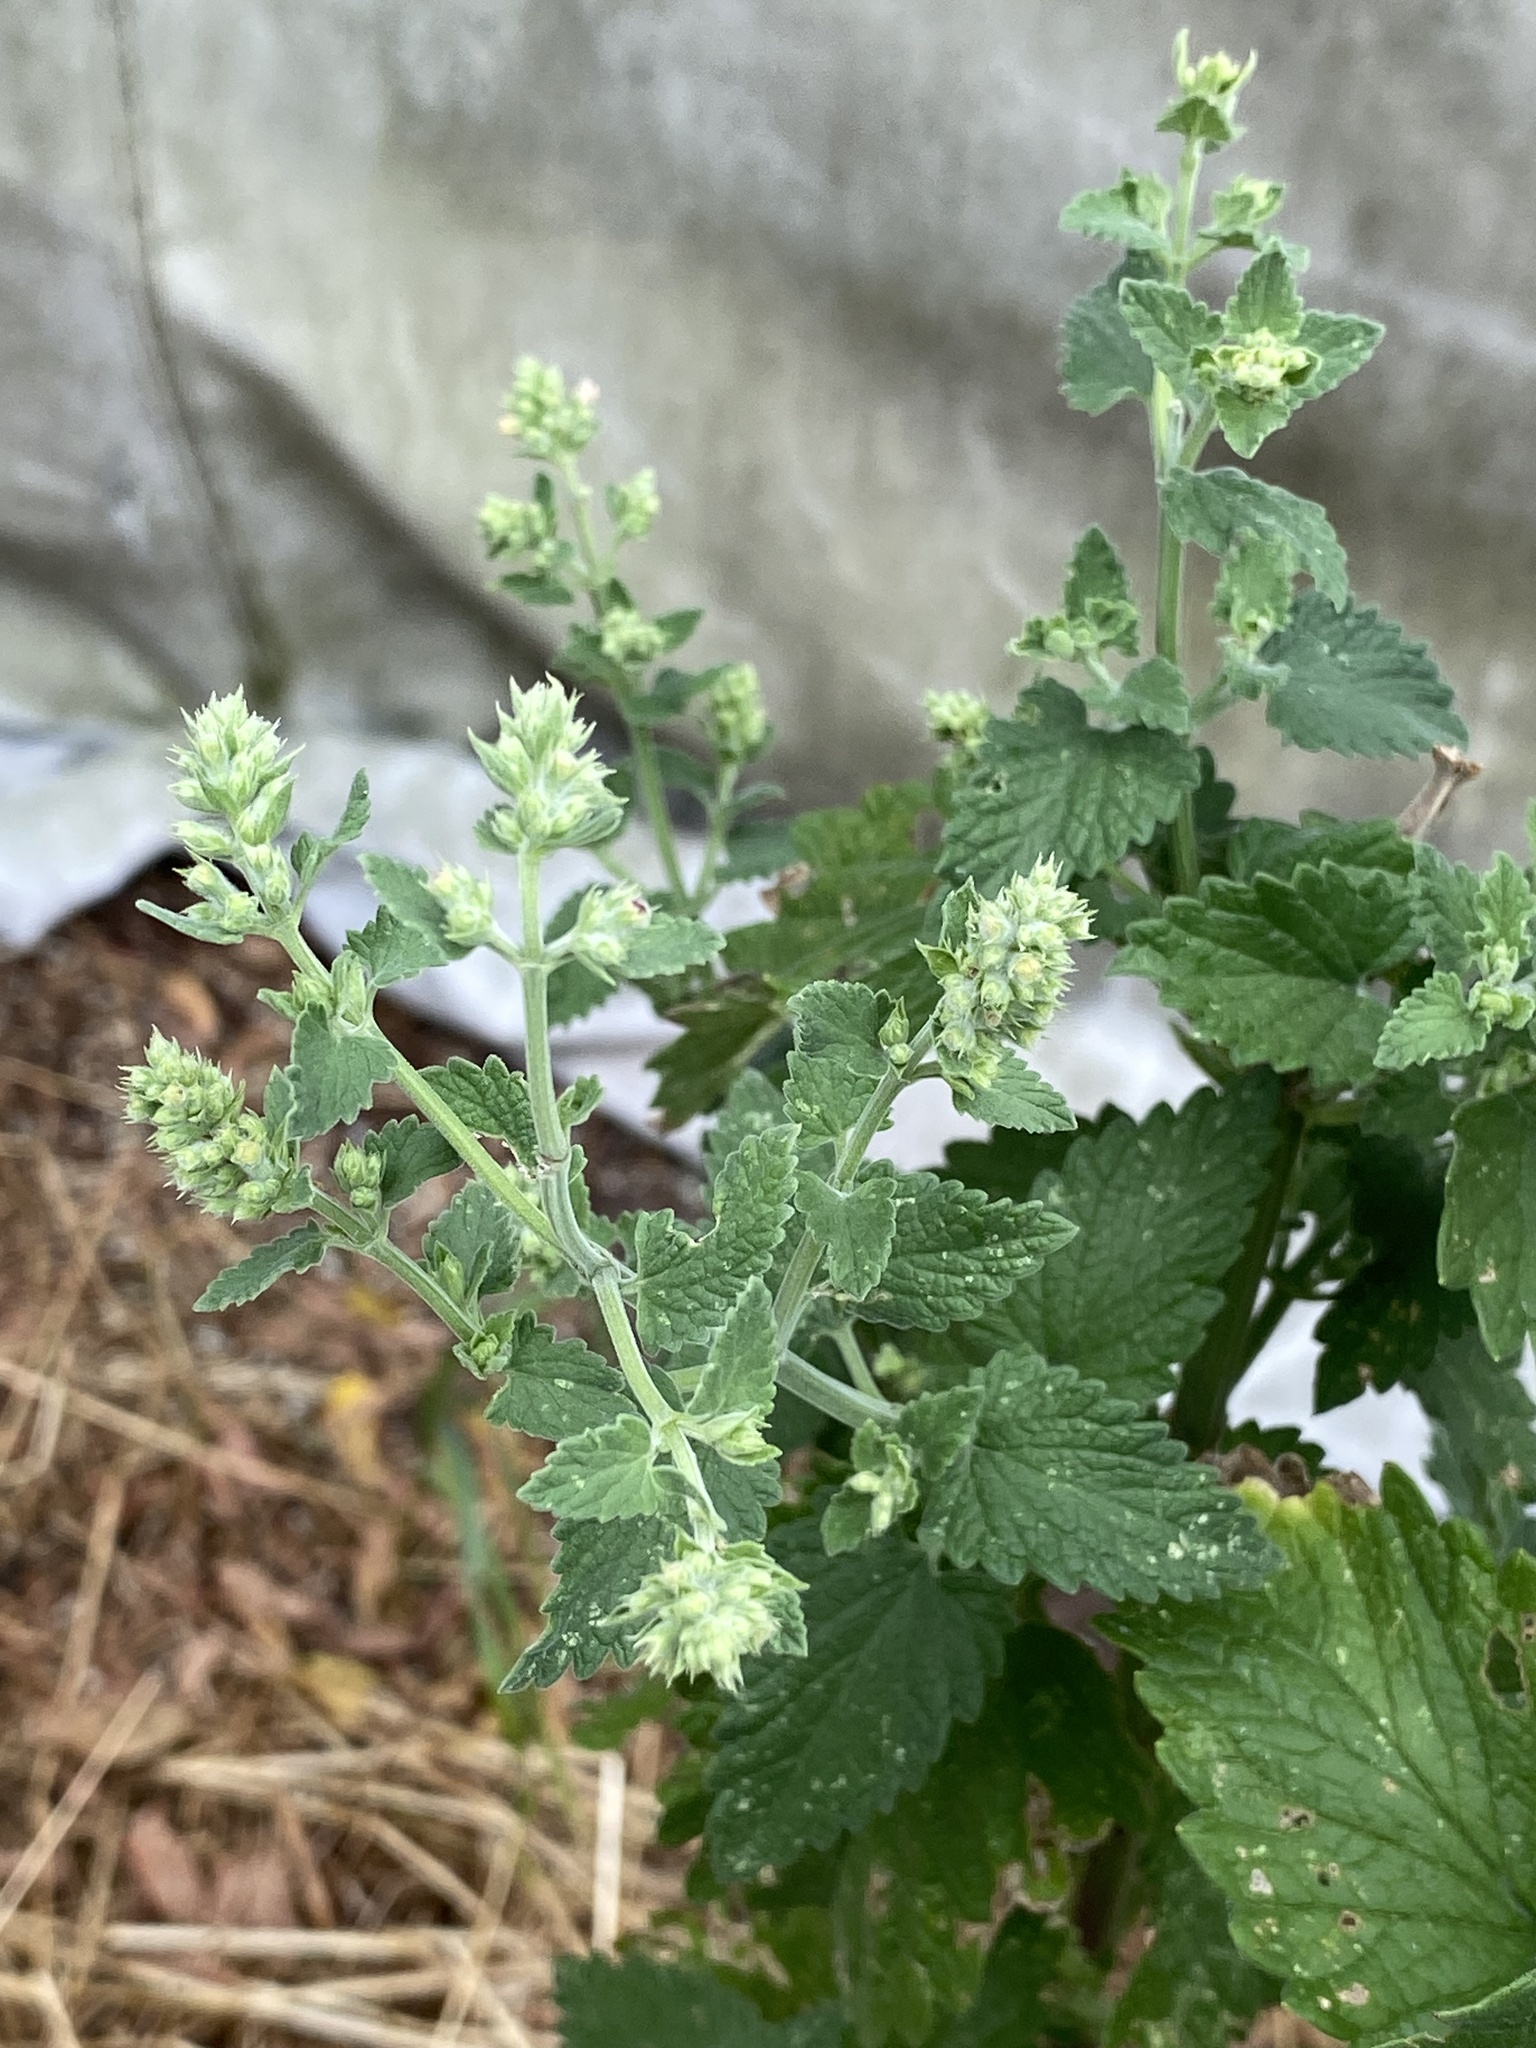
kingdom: Plantae
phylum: Tracheophyta
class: Magnoliopsida
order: Lamiales
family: Lamiaceae
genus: Nepeta
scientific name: Nepeta cataria
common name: Catnip
